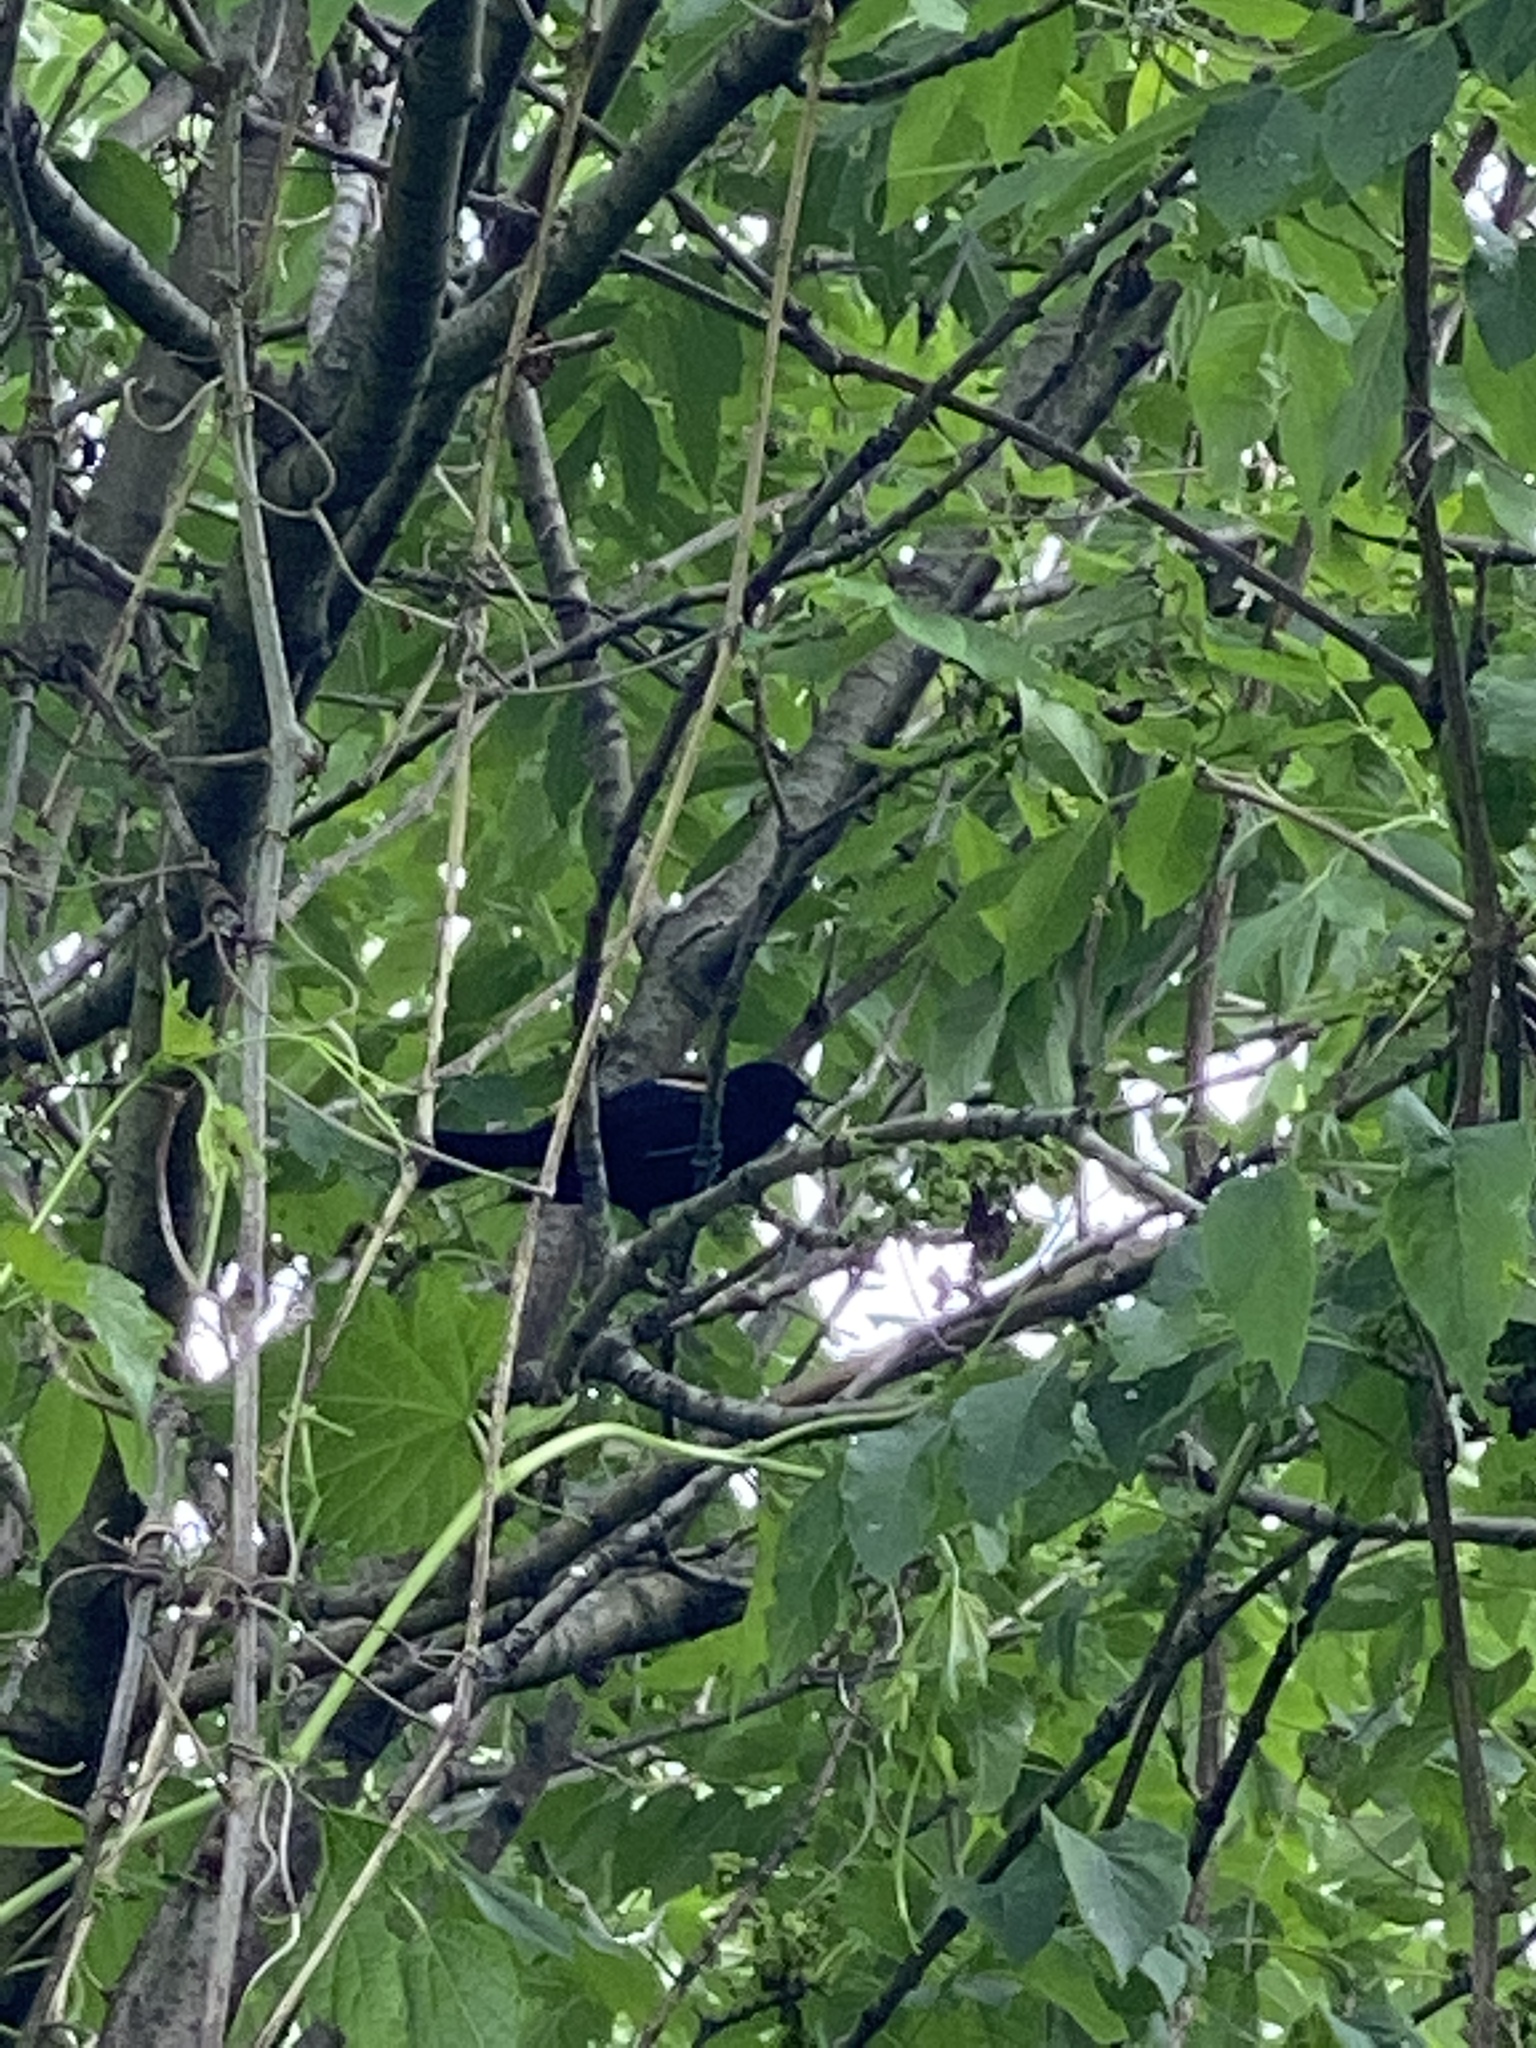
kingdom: Animalia
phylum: Chordata
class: Aves
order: Passeriformes
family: Icteridae
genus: Agelaius
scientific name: Agelaius phoeniceus
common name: Red-winged blackbird
